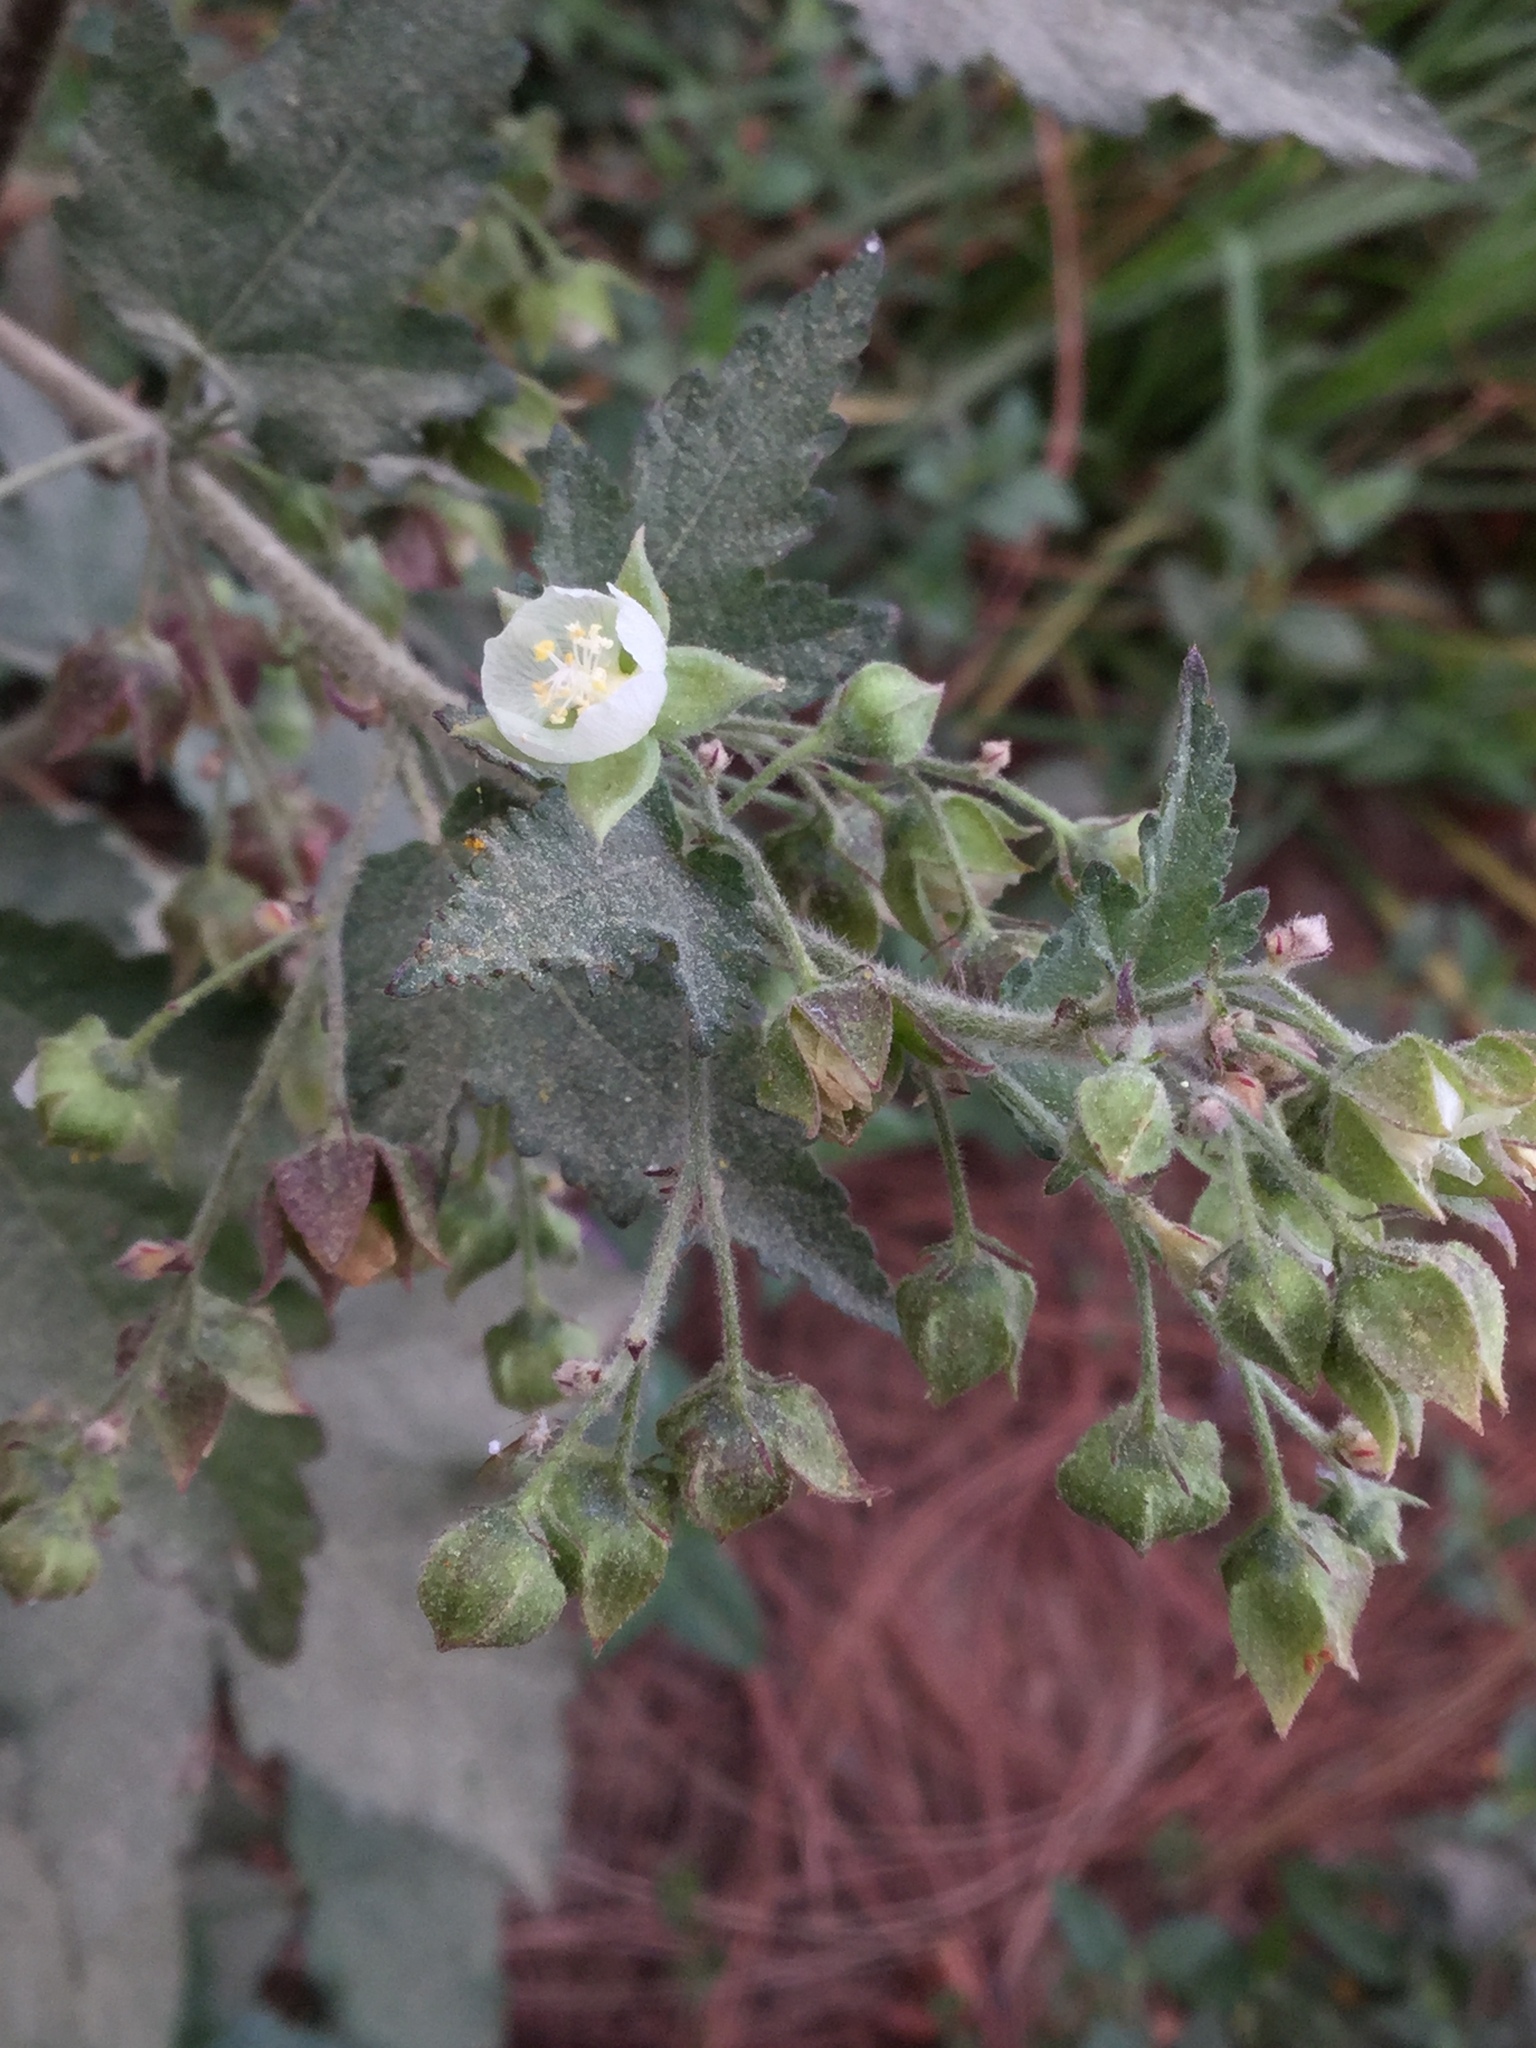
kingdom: Plantae
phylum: Tracheophyta
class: Magnoliopsida
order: Malvales
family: Malvaceae
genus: Kearnemalvastrum
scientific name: Kearnemalvastrum lacteum
